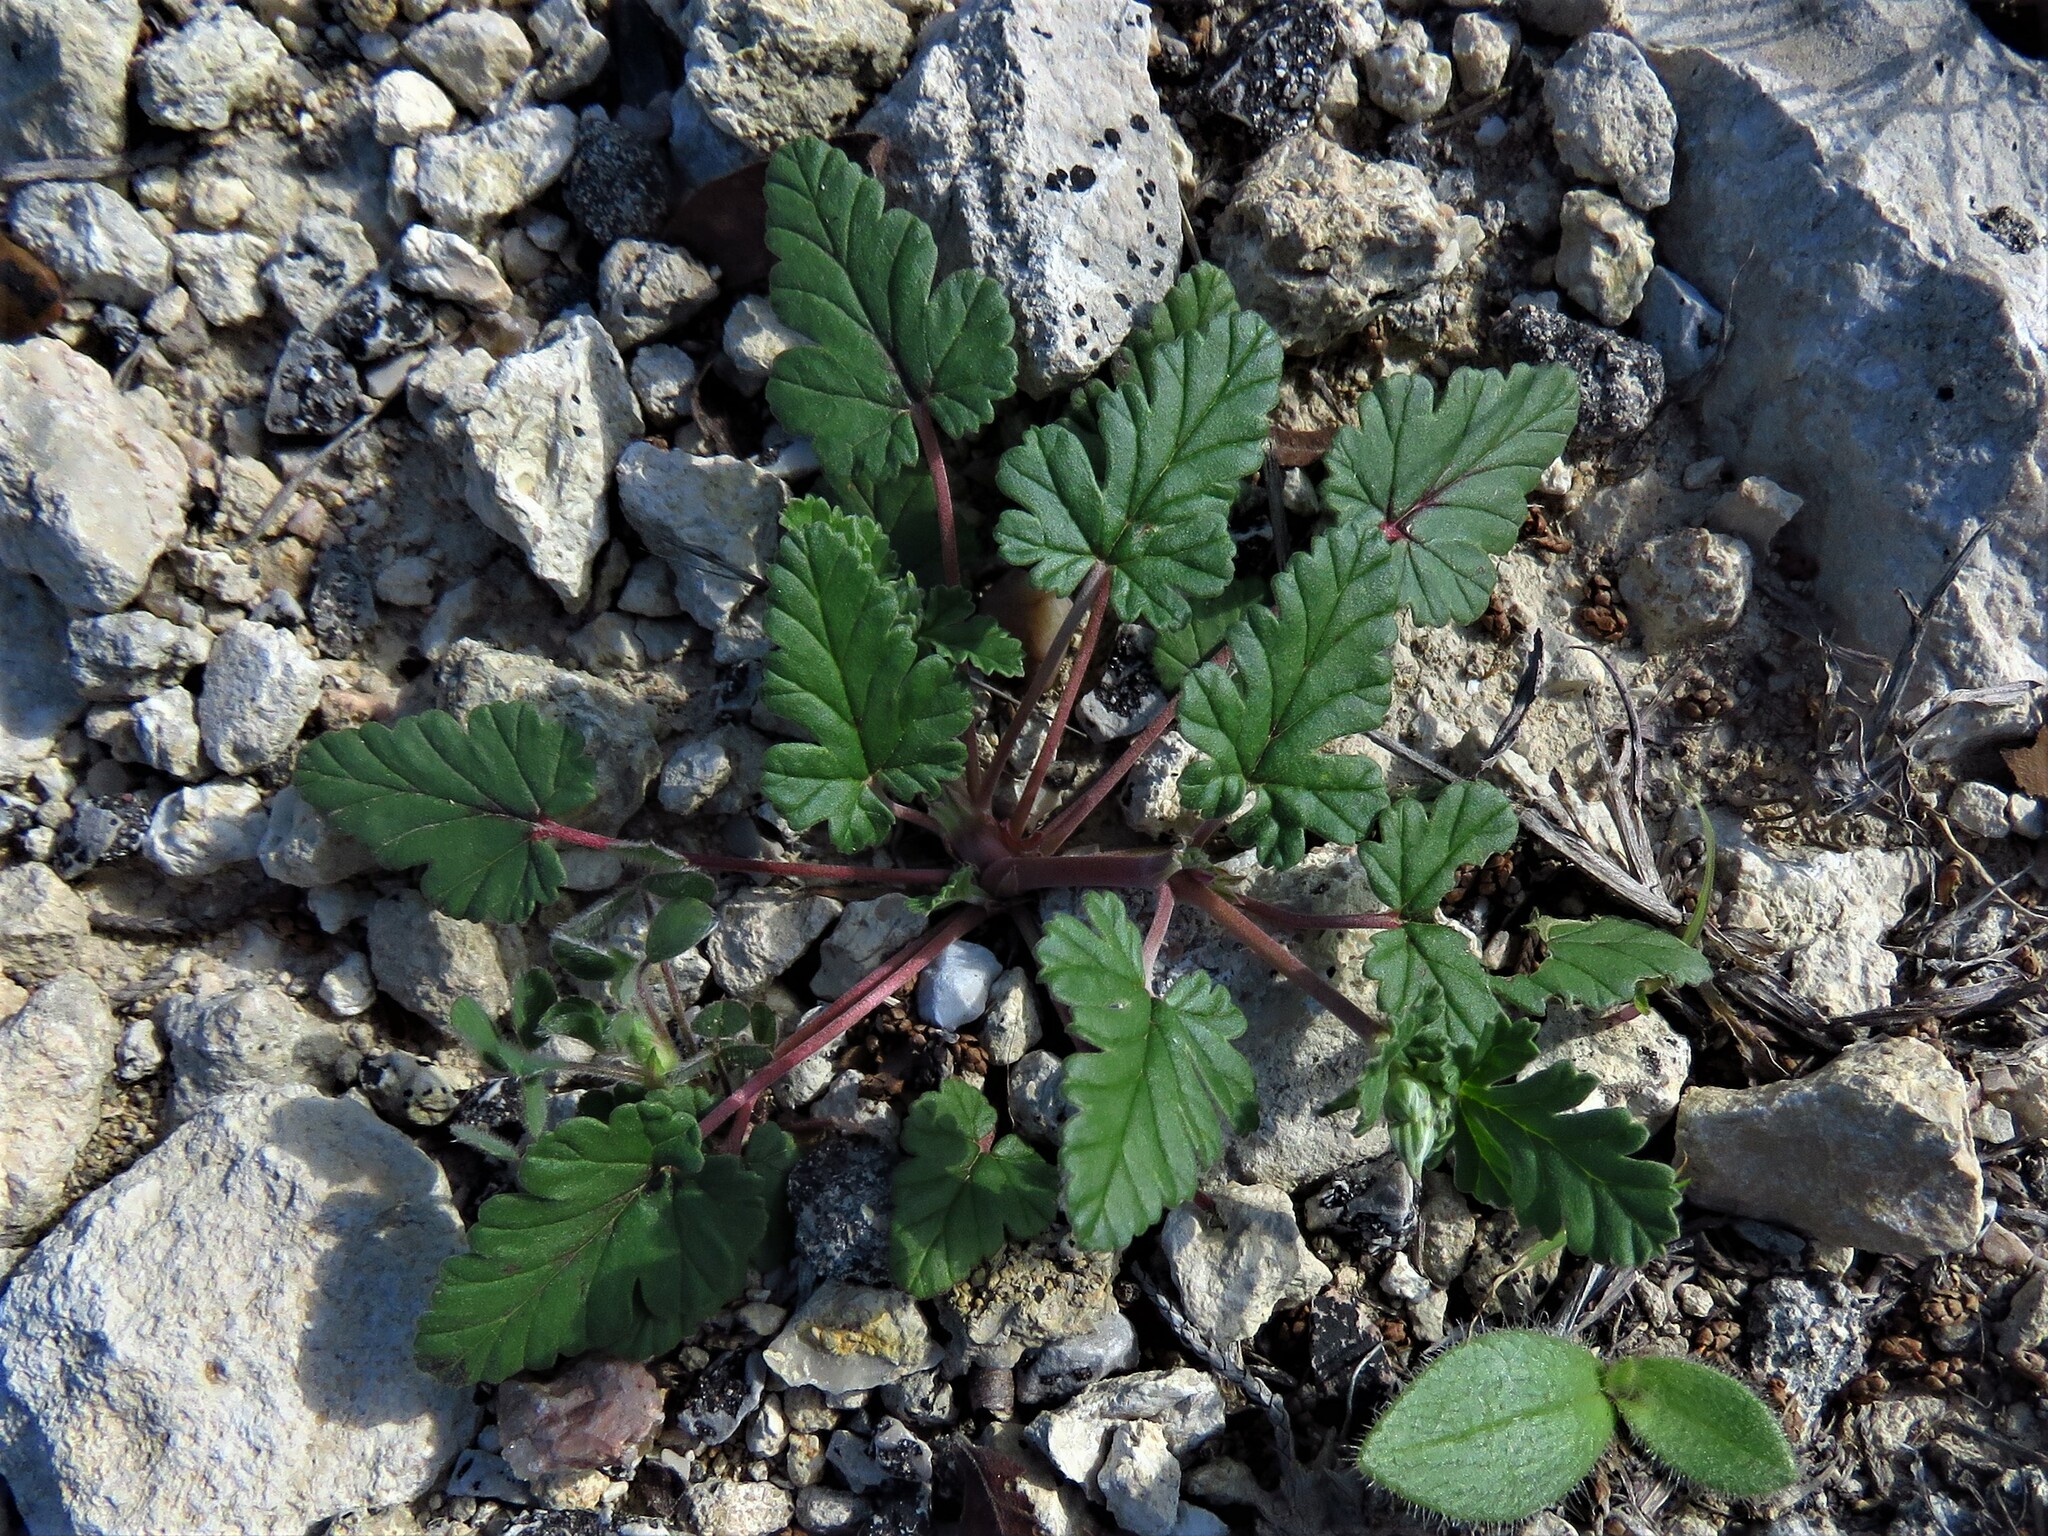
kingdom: Plantae
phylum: Tracheophyta
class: Magnoliopsida
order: Geraniales
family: Geraniaceae
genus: Erodium
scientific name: Erodium texanum
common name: Texas stork's-bill
